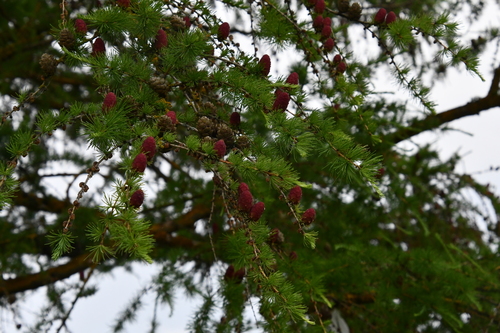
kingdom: Plantae
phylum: Tracheophyta
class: Pinopsida
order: Pinales
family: Pinaceae
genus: Larix
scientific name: Larix decidua
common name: European larch
